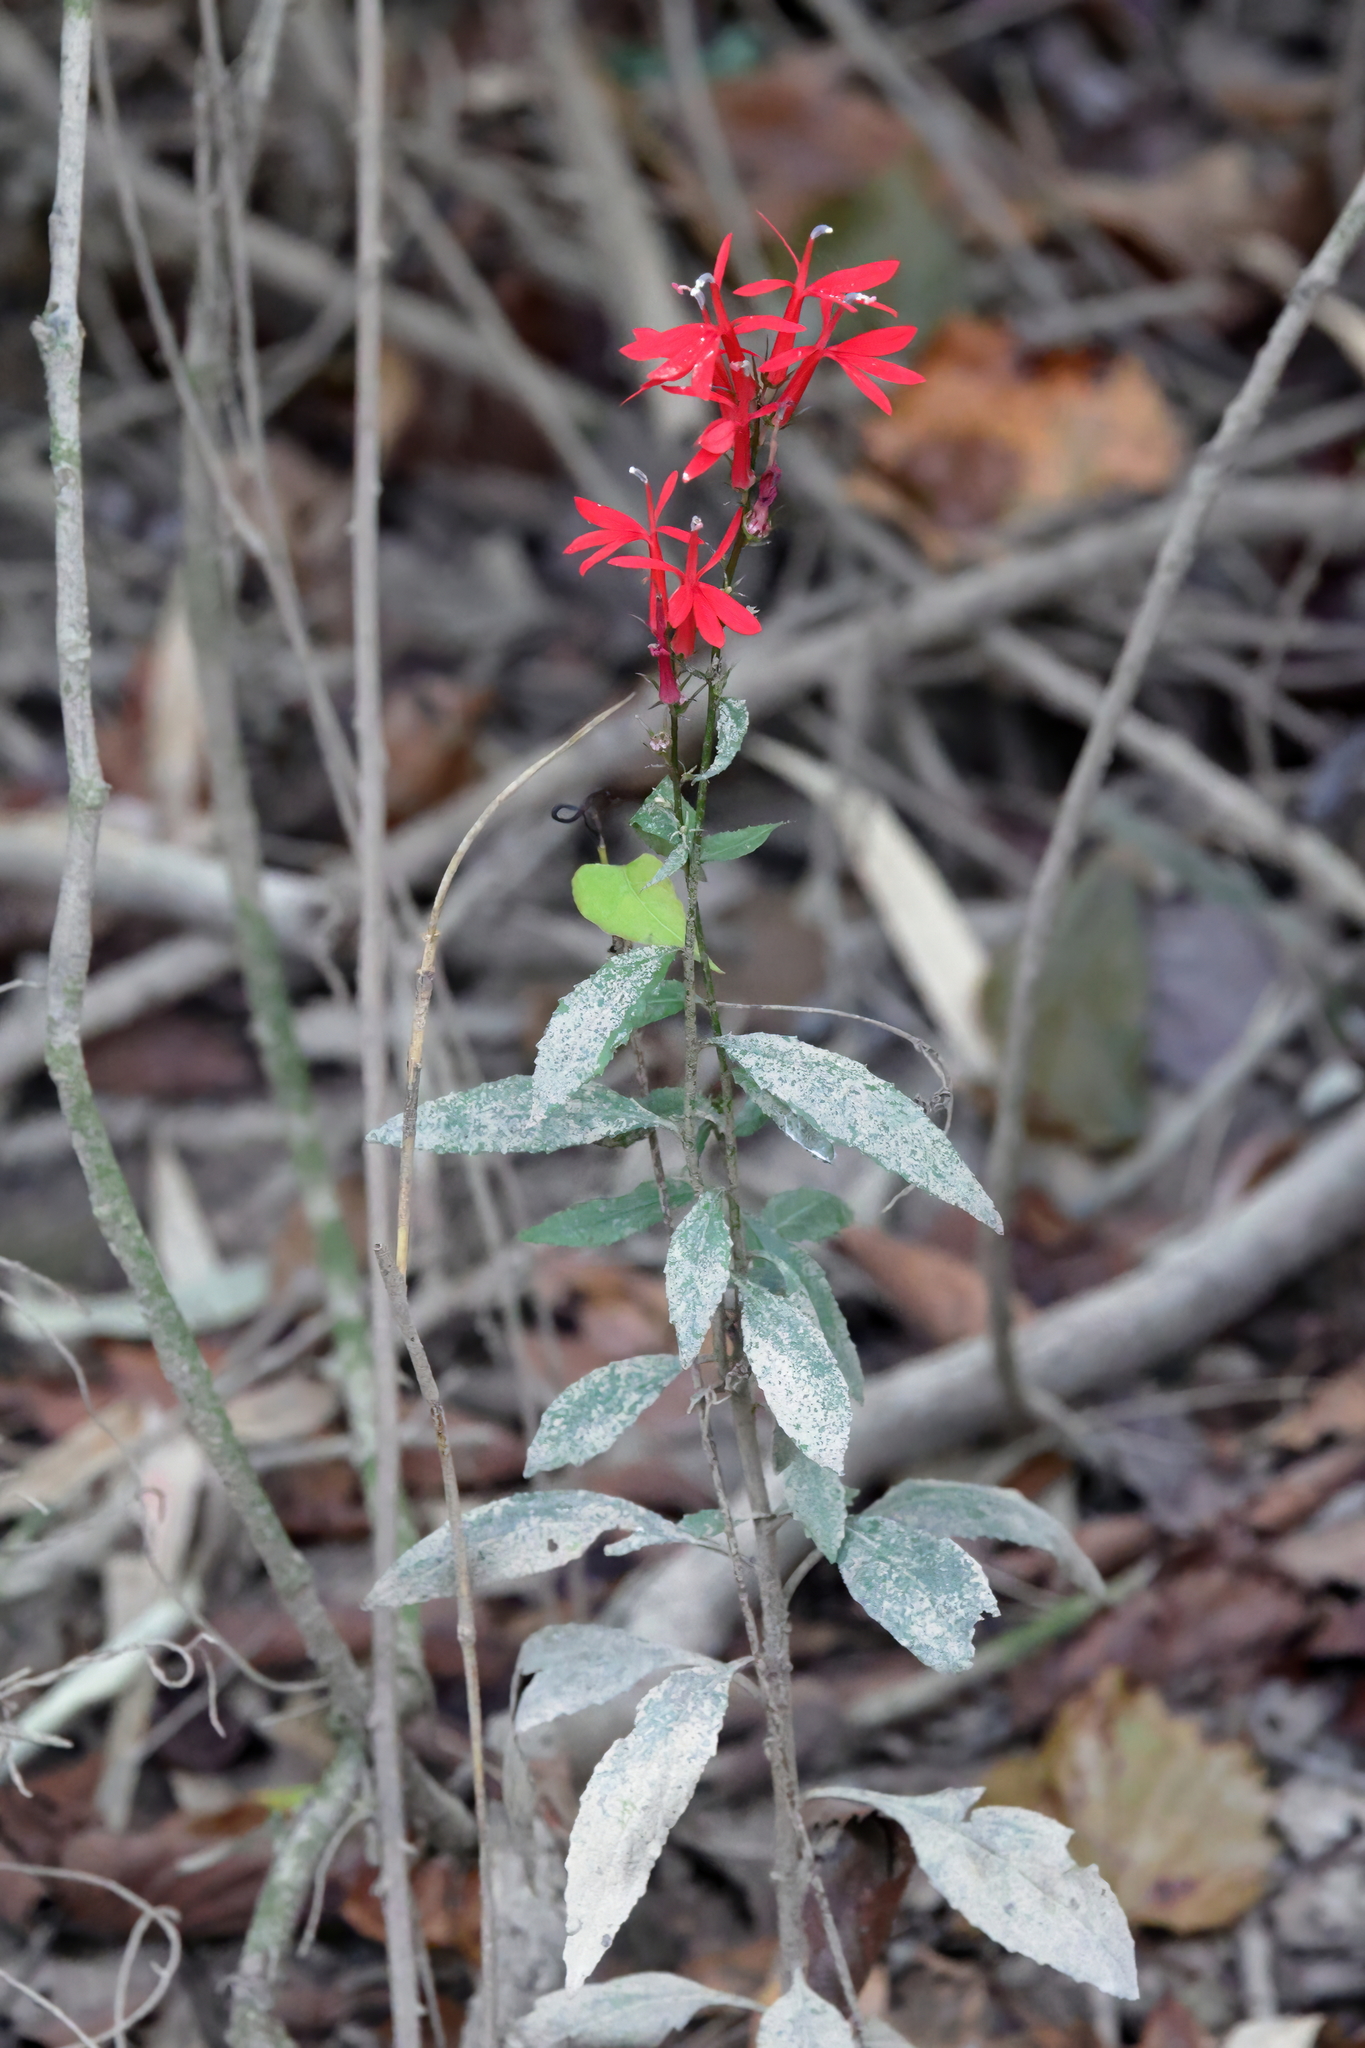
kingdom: Plantae
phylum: Tracheophyta
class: Magnoliopsida
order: Asterales
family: Campanulaceae
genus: Lobelia
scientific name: Lobelia cardinalis
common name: Cardinal flower
